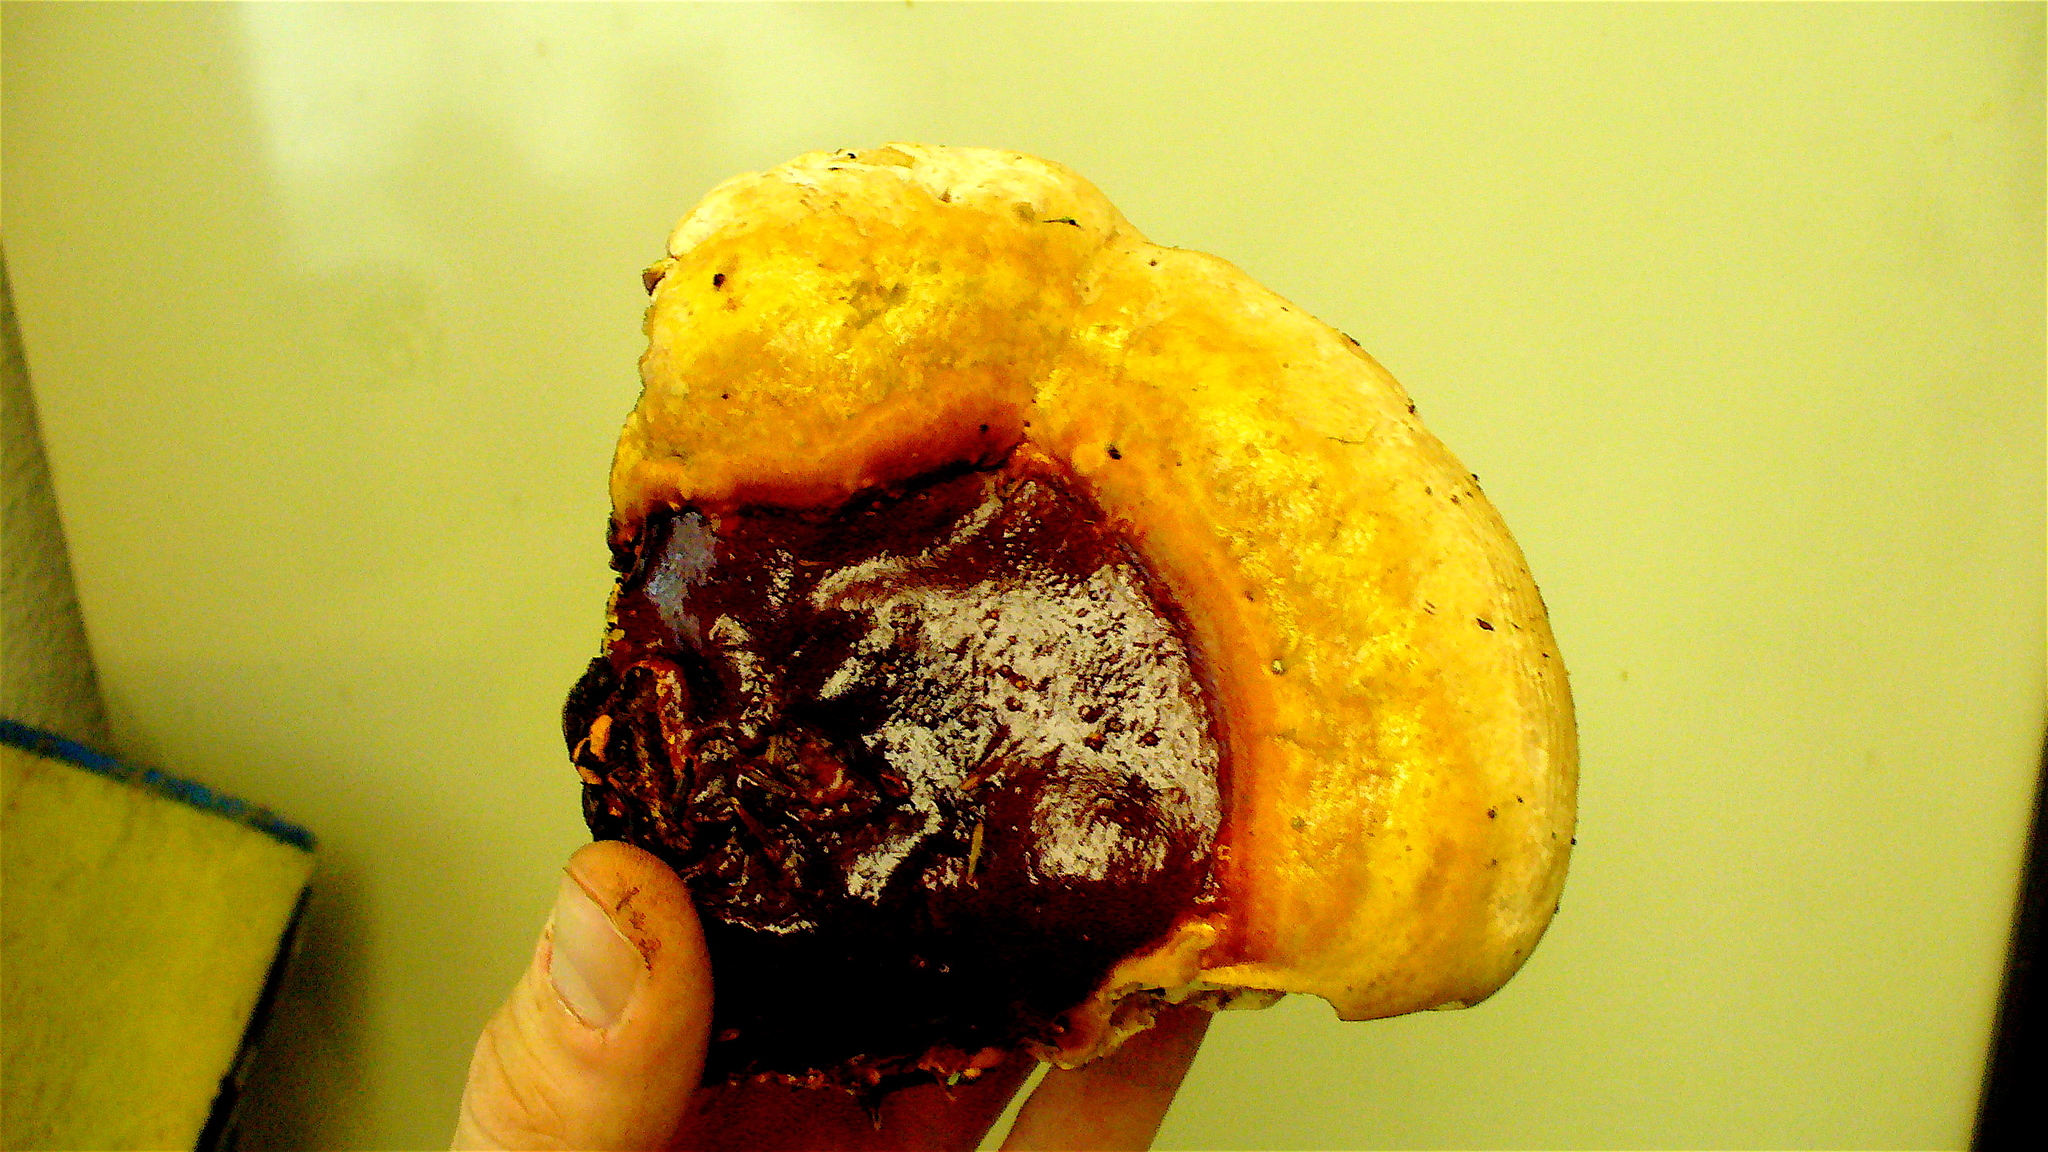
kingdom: Fungi
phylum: Basidiomycota
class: Agaricomycetes
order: Polyporales
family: Polyporaceae
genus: Ganoderma
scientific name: Ganoderma oregonense
